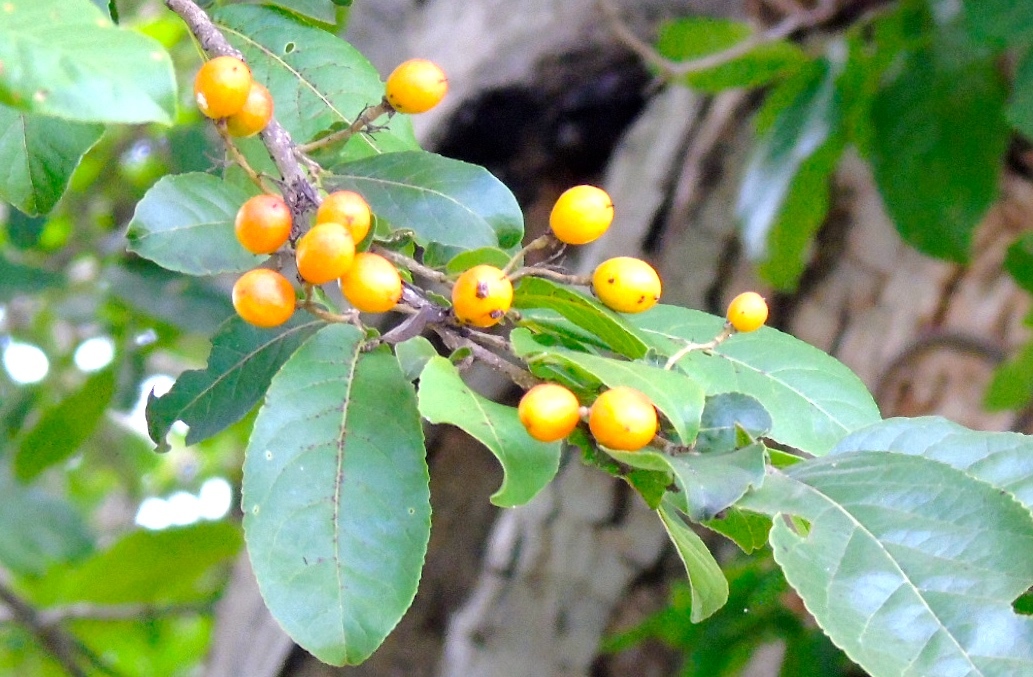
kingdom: Plantae
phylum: Tracheophyta
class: Magnoliopsida
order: Malpighiales
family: Salicaceae
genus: Casearia
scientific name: Casearia nitida
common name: Smooth honeytree
